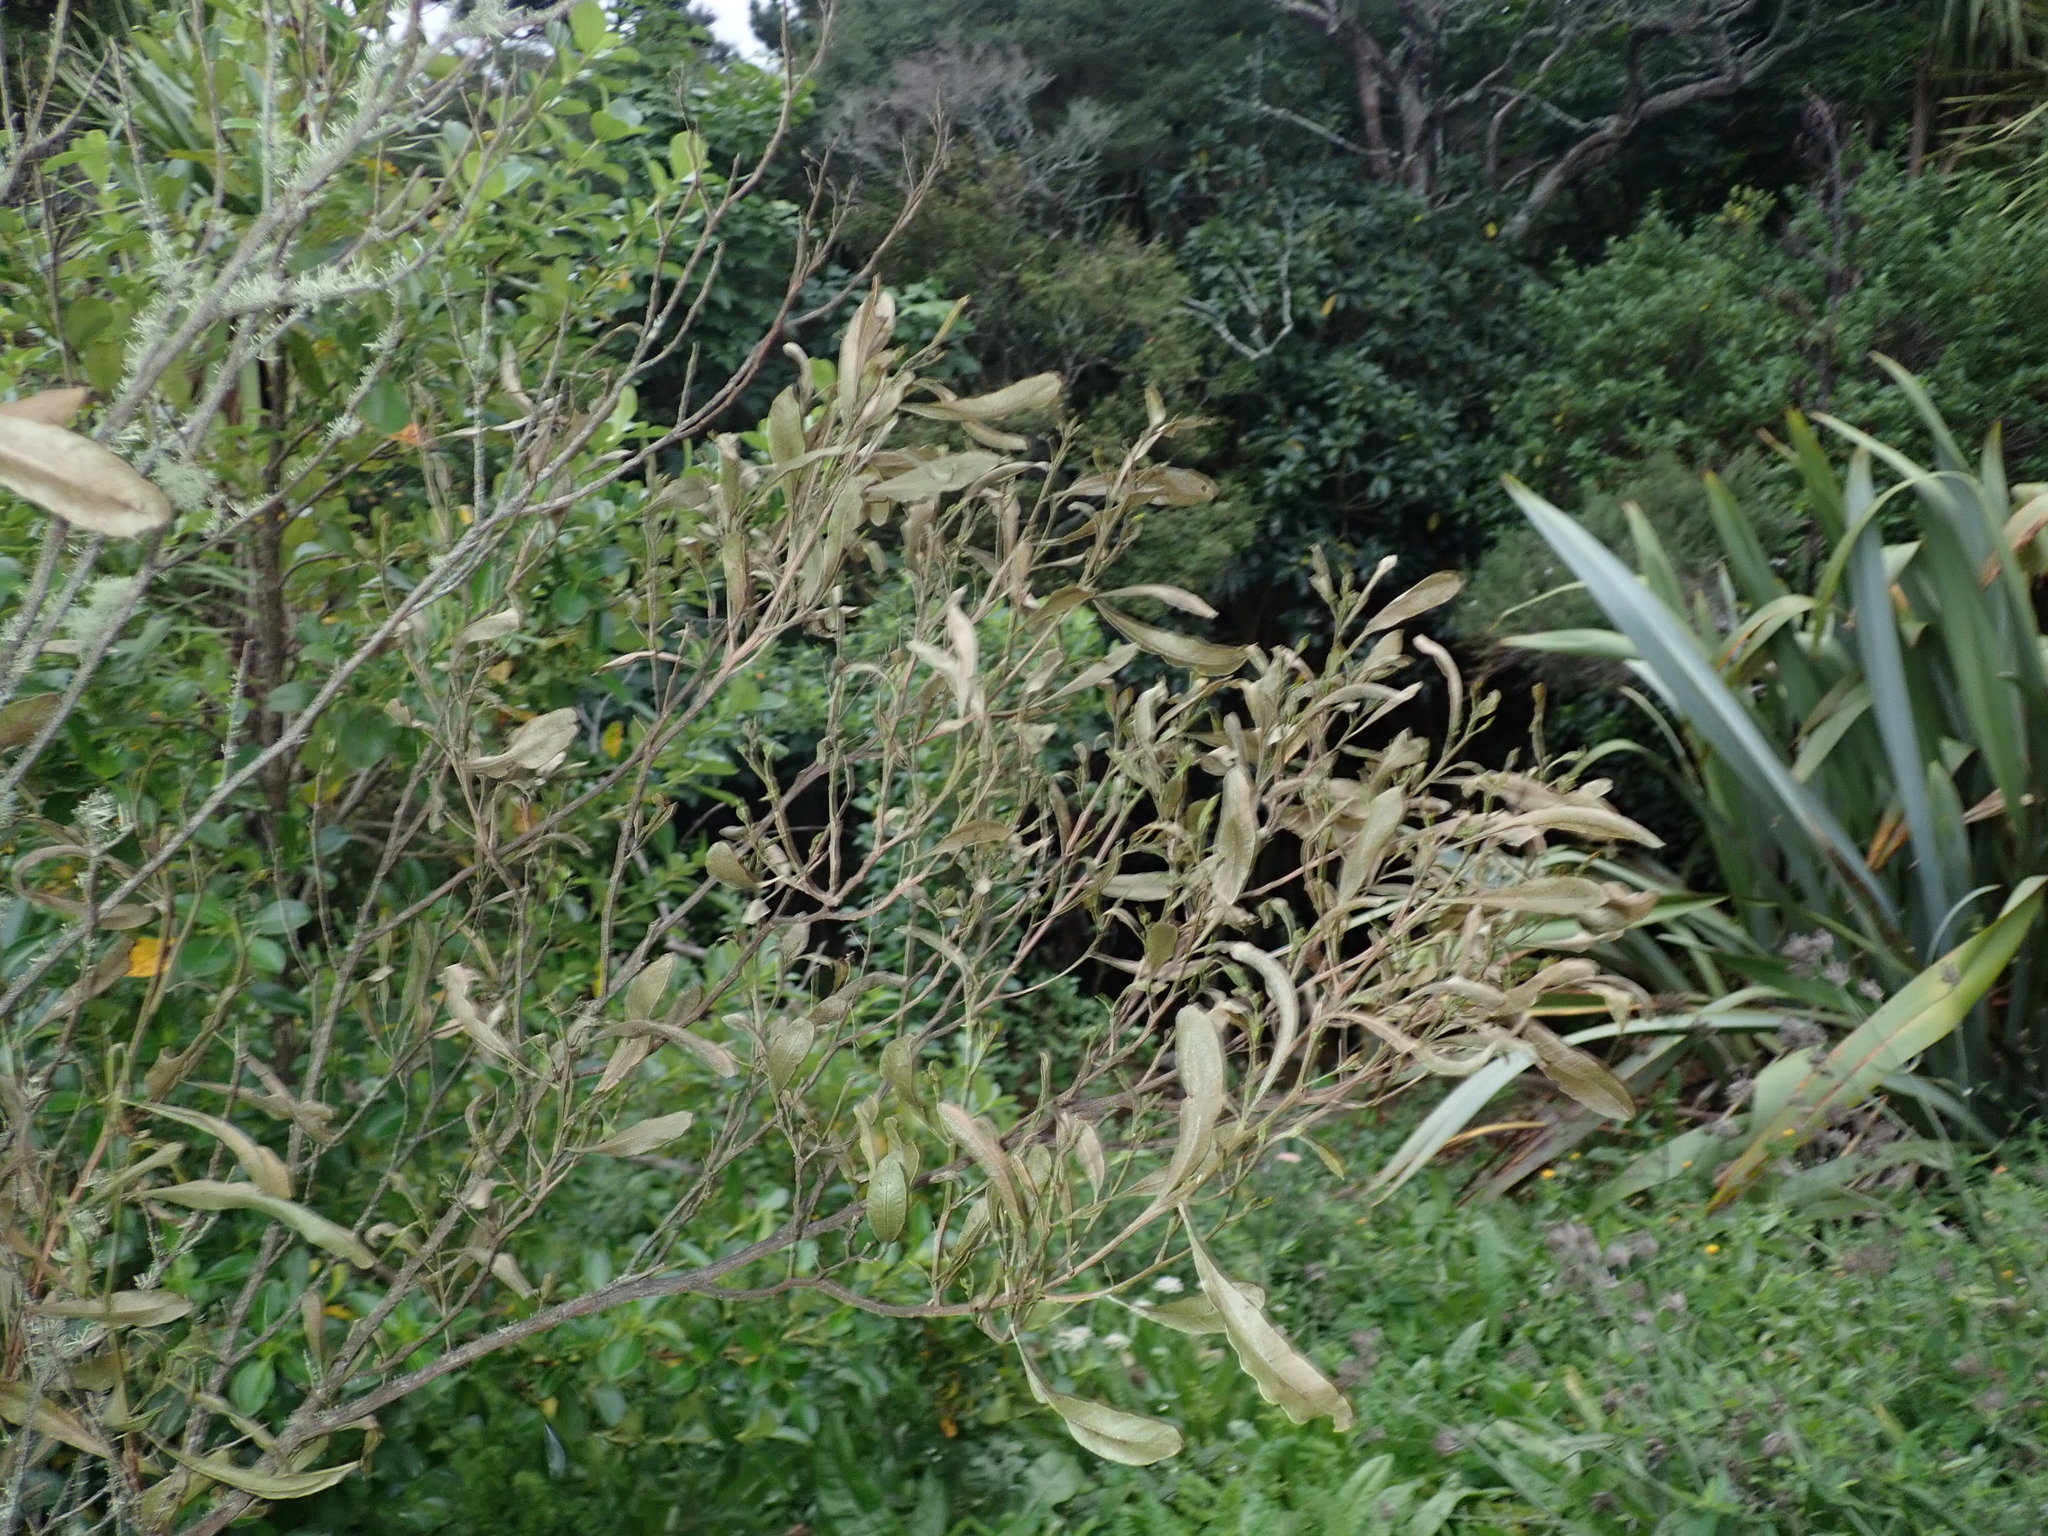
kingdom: Plantae
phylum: Tracheophyta
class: Magnoliopsida
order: Sapindales
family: Sapindaceae
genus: Dodonaea
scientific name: Dodonaea viscosa
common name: Hopbush
